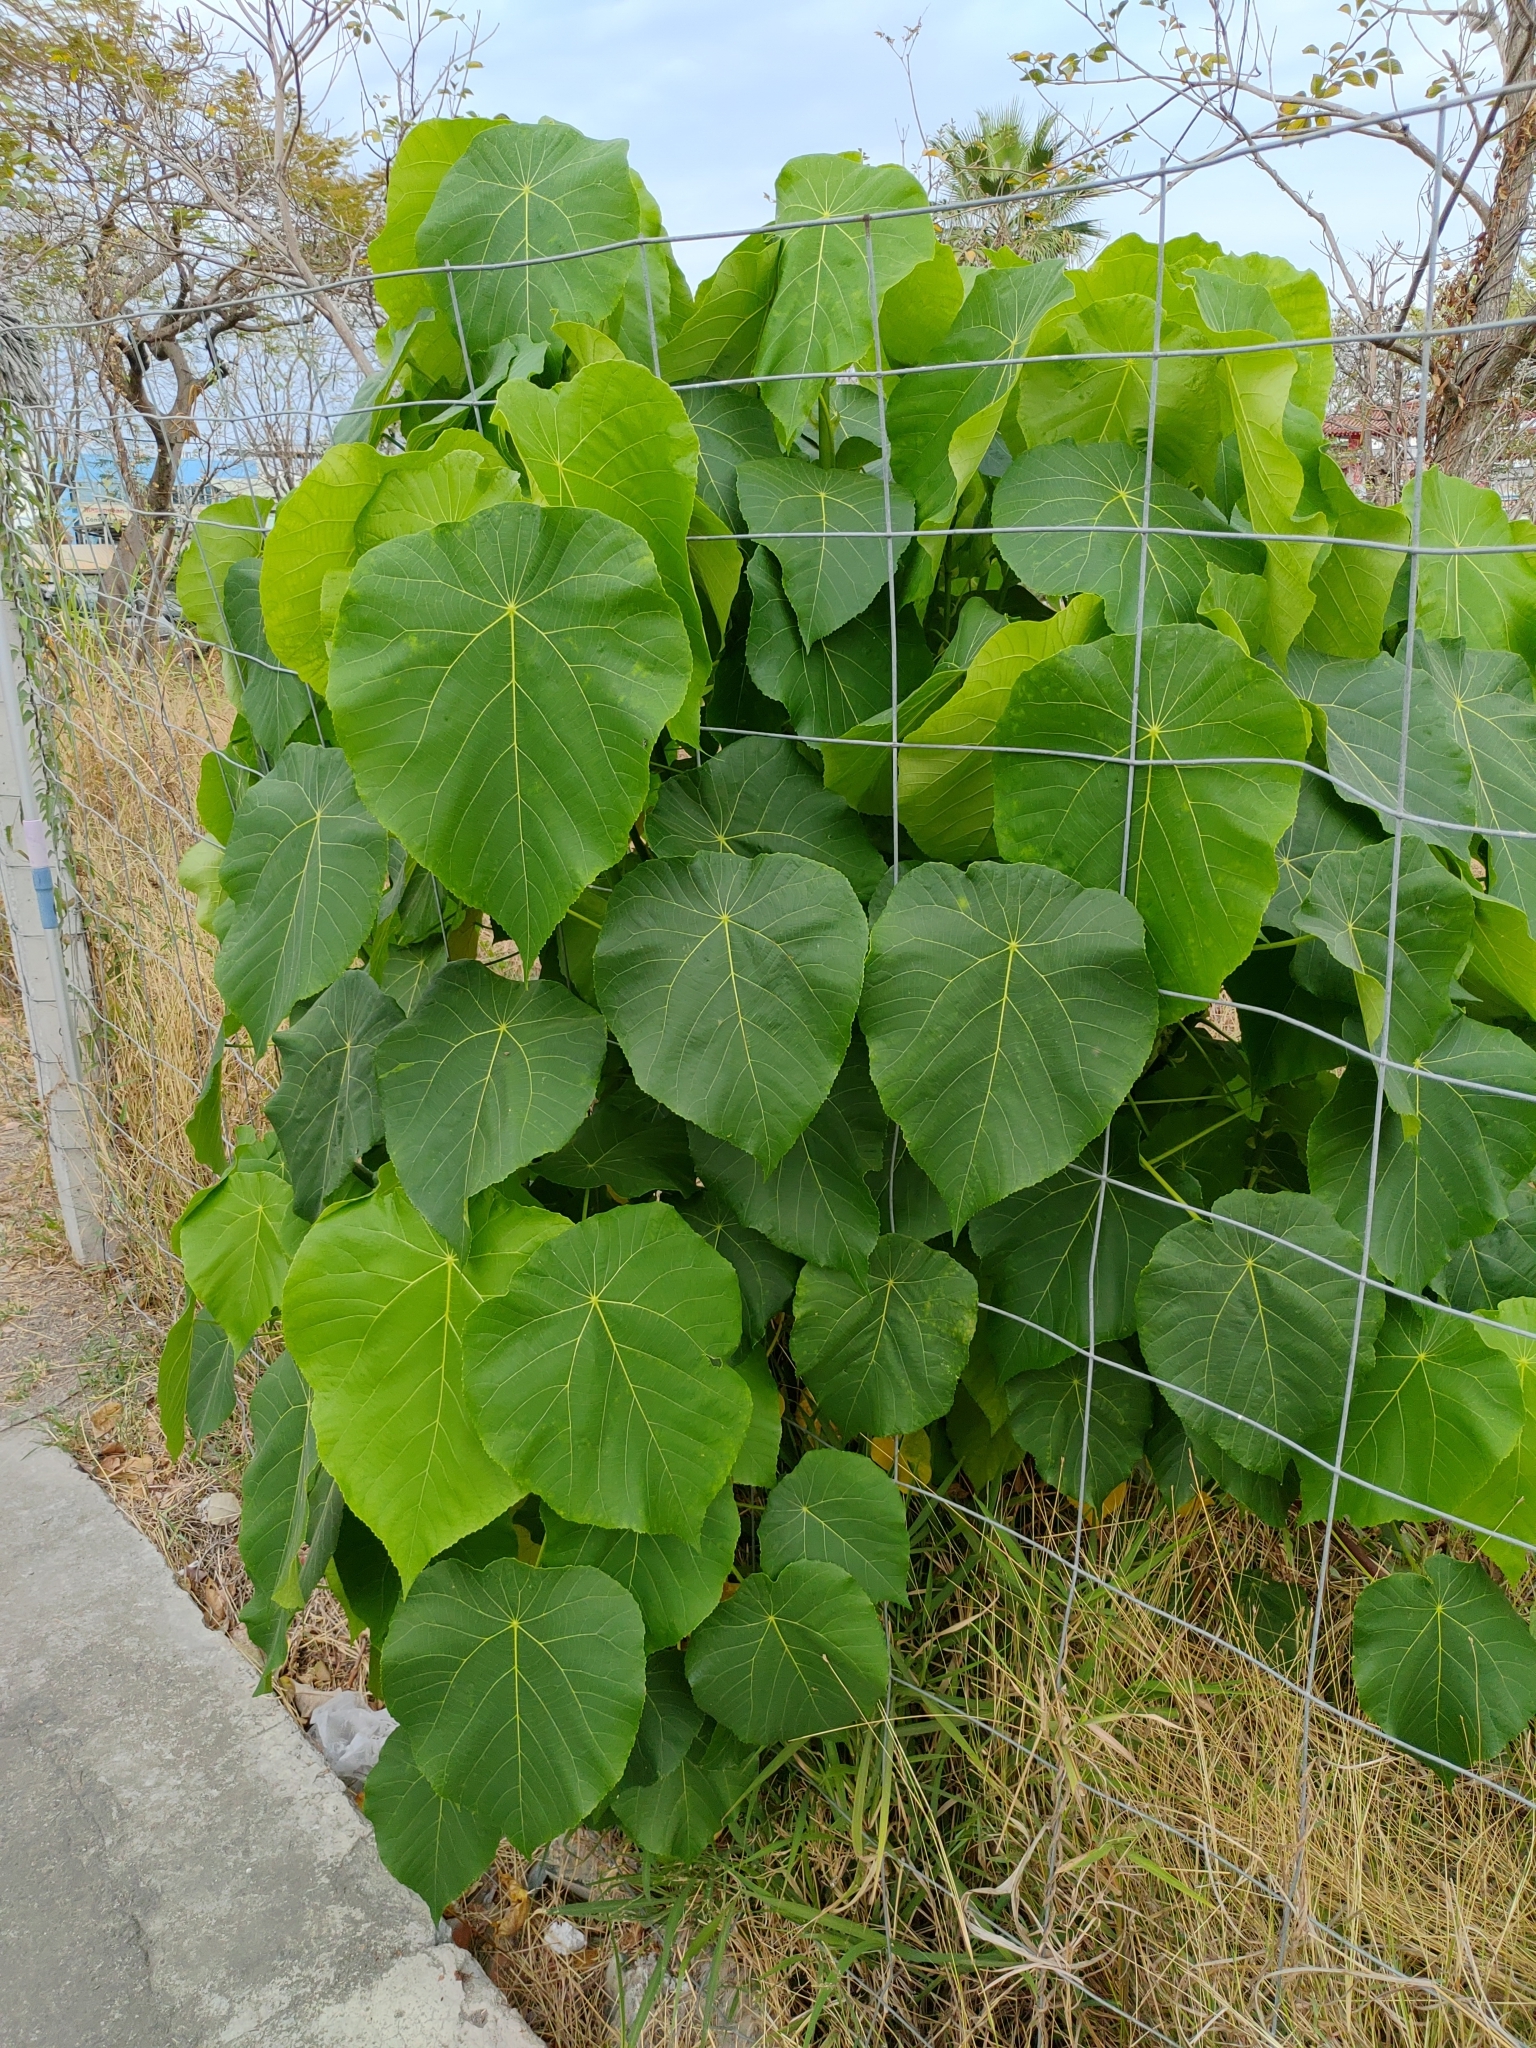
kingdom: Plantae
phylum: Tracheophyta
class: Magnoliopsida
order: Malpighiales
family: Euphorbiaceae
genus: Macaranga
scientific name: Macaranga tanarius
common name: Parasol leaf tree
